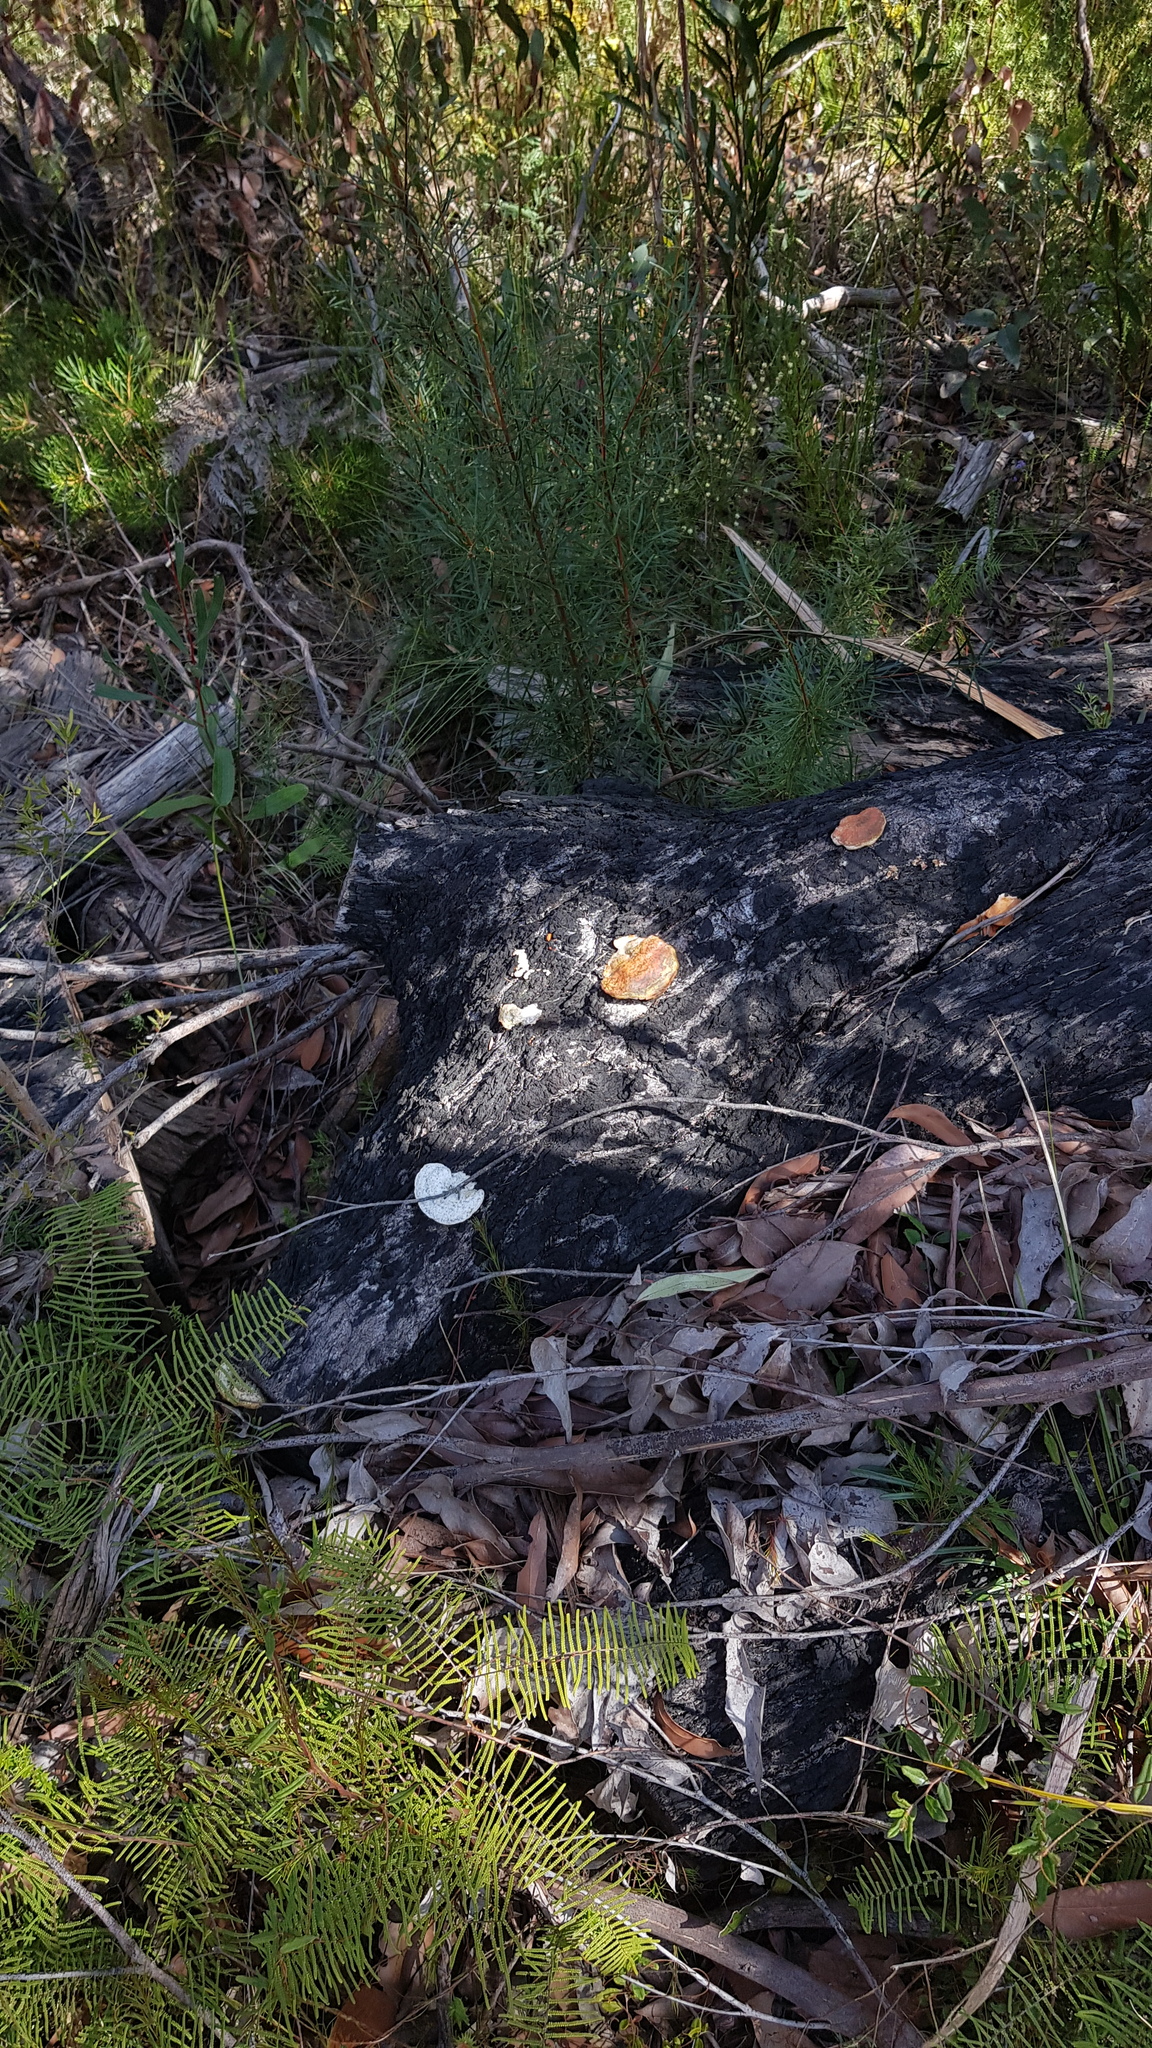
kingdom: Fungi
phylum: Basidiomycota
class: Agaricomycetes
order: Polyporales
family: Polyporaceae
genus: Trametes
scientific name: Trametes coccinea
